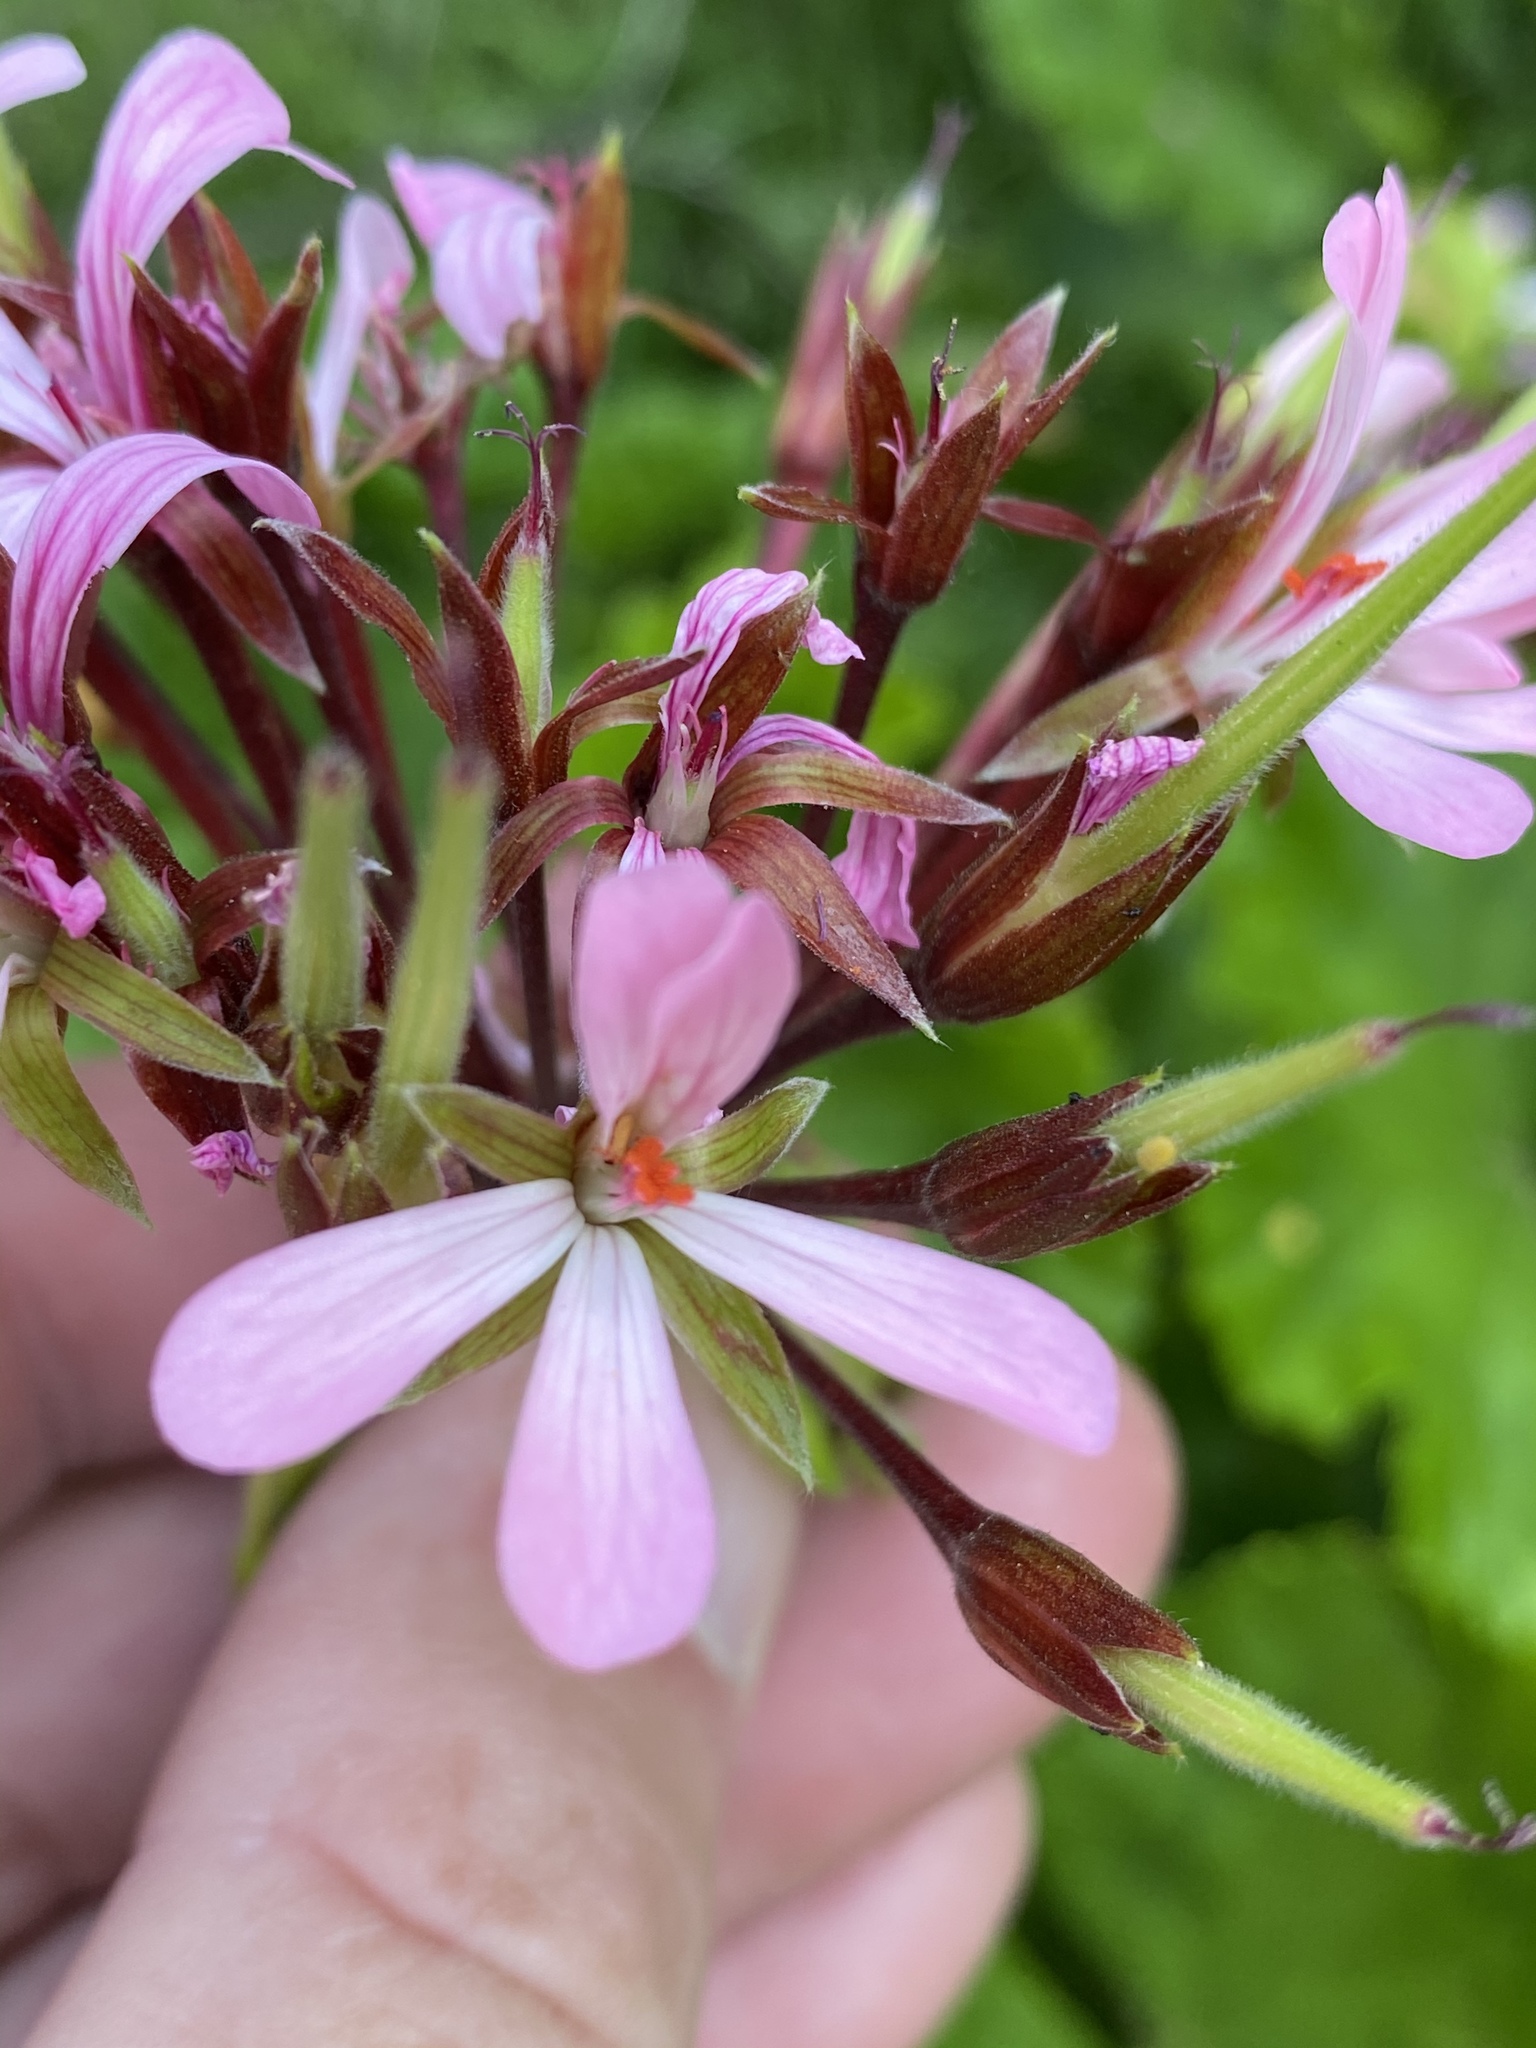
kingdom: Plantae
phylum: Tracheophyta
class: Magnoliopsida
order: Geraniales
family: Geraniaceae
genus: Pelargonium
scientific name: Pelargonium zonale
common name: Horseshoe geranium
